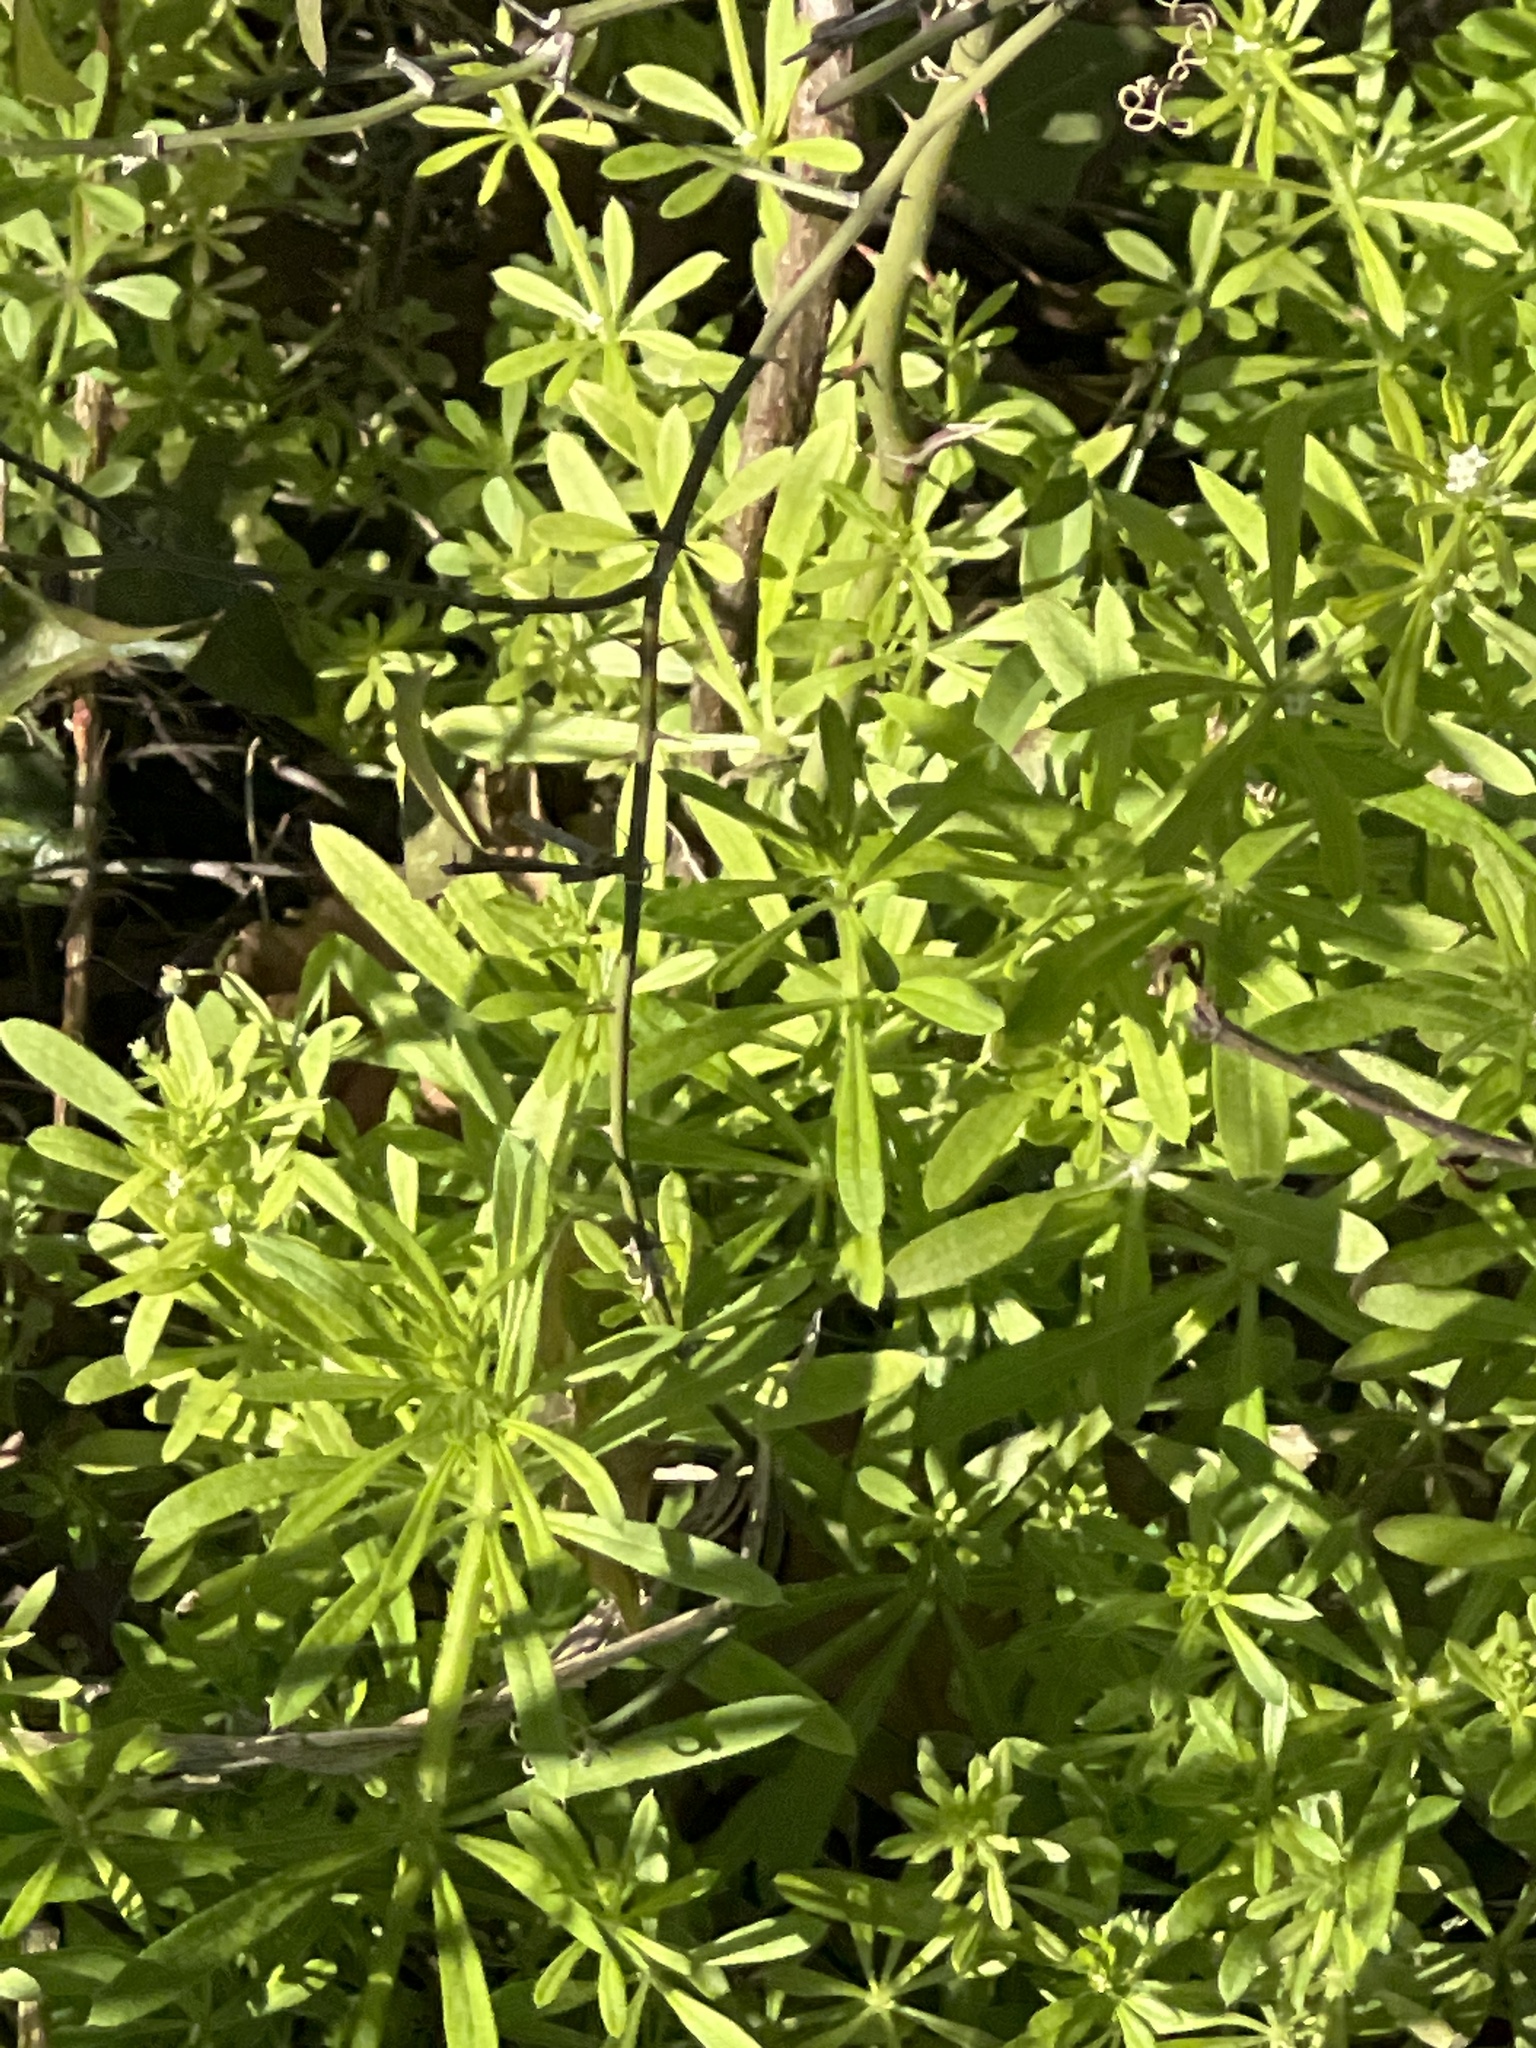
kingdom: Plantae
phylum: Tracheophyta
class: Magnoliopsida
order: Gentianales
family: Rubiaceae
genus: Galium
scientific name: Galium aparine
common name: Cleavers
